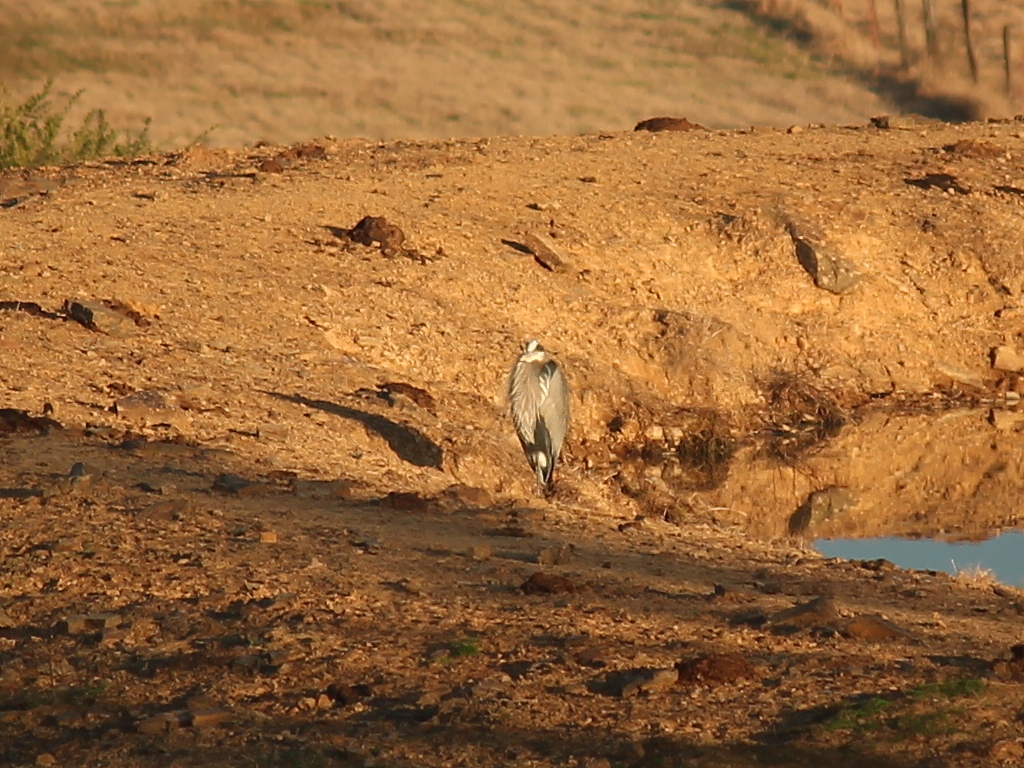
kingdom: Animalia
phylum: Chordata
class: Aves
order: Pelecaniformes
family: Ardeidae
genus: Ardea
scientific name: Ardea herodias
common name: Great blue heron
